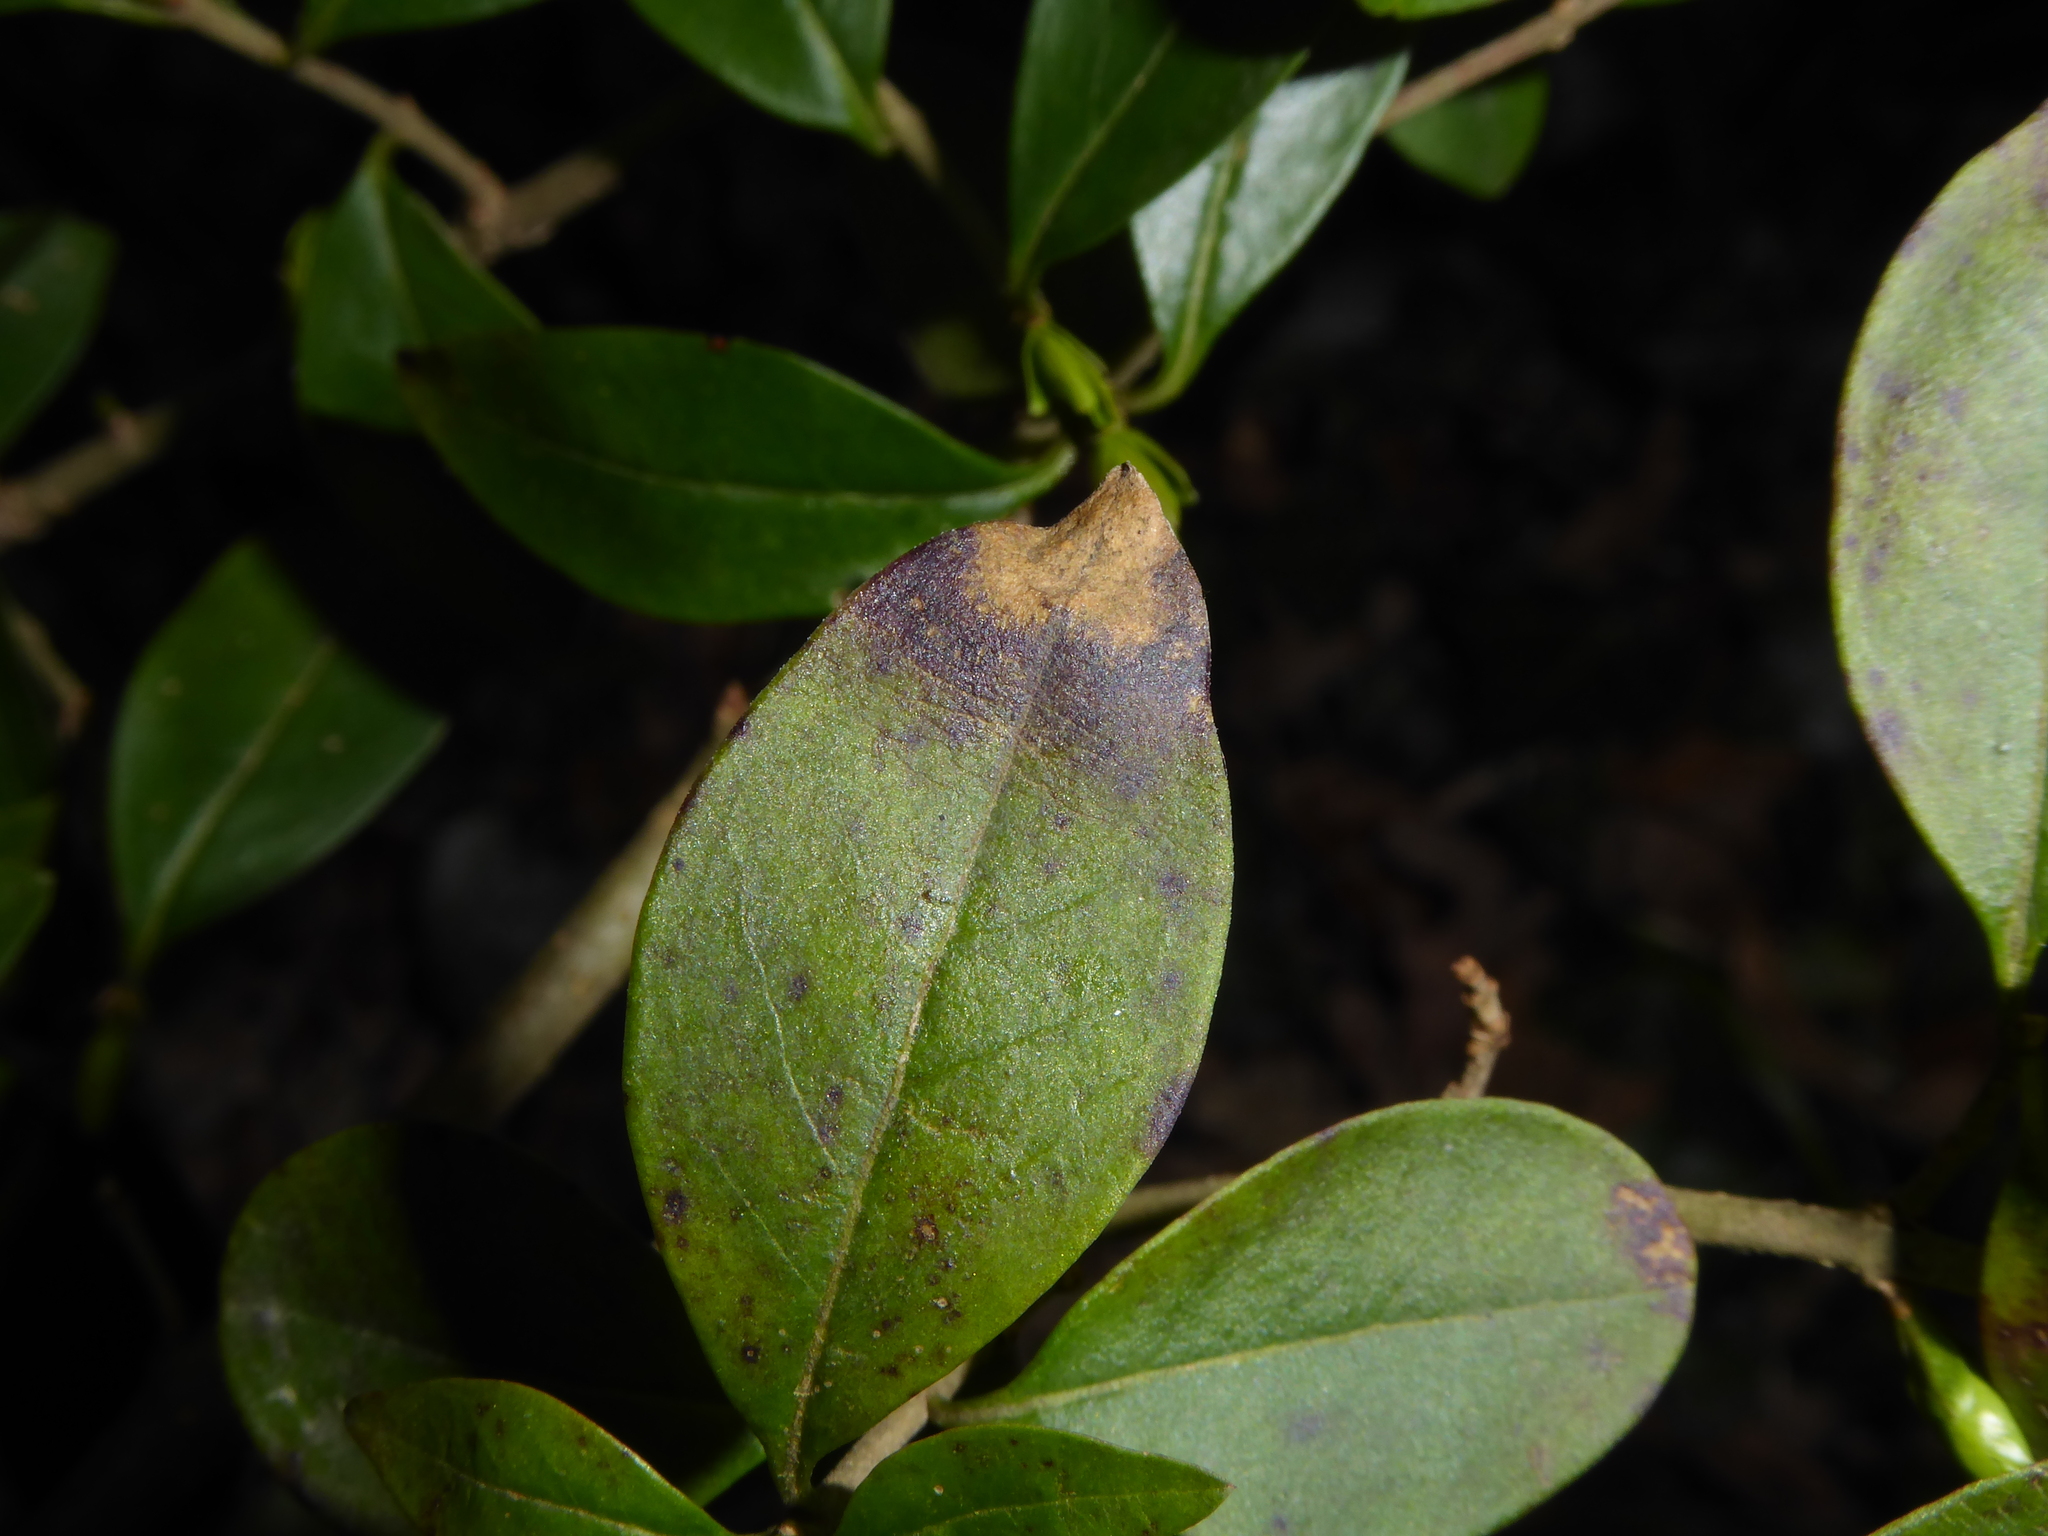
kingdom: Plantae
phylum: Tracheophyta
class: Magnoliopsida
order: Lamiales
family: Oleaceae
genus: Ligustrum
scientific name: Ligustrum vulgare
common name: Wild privet
